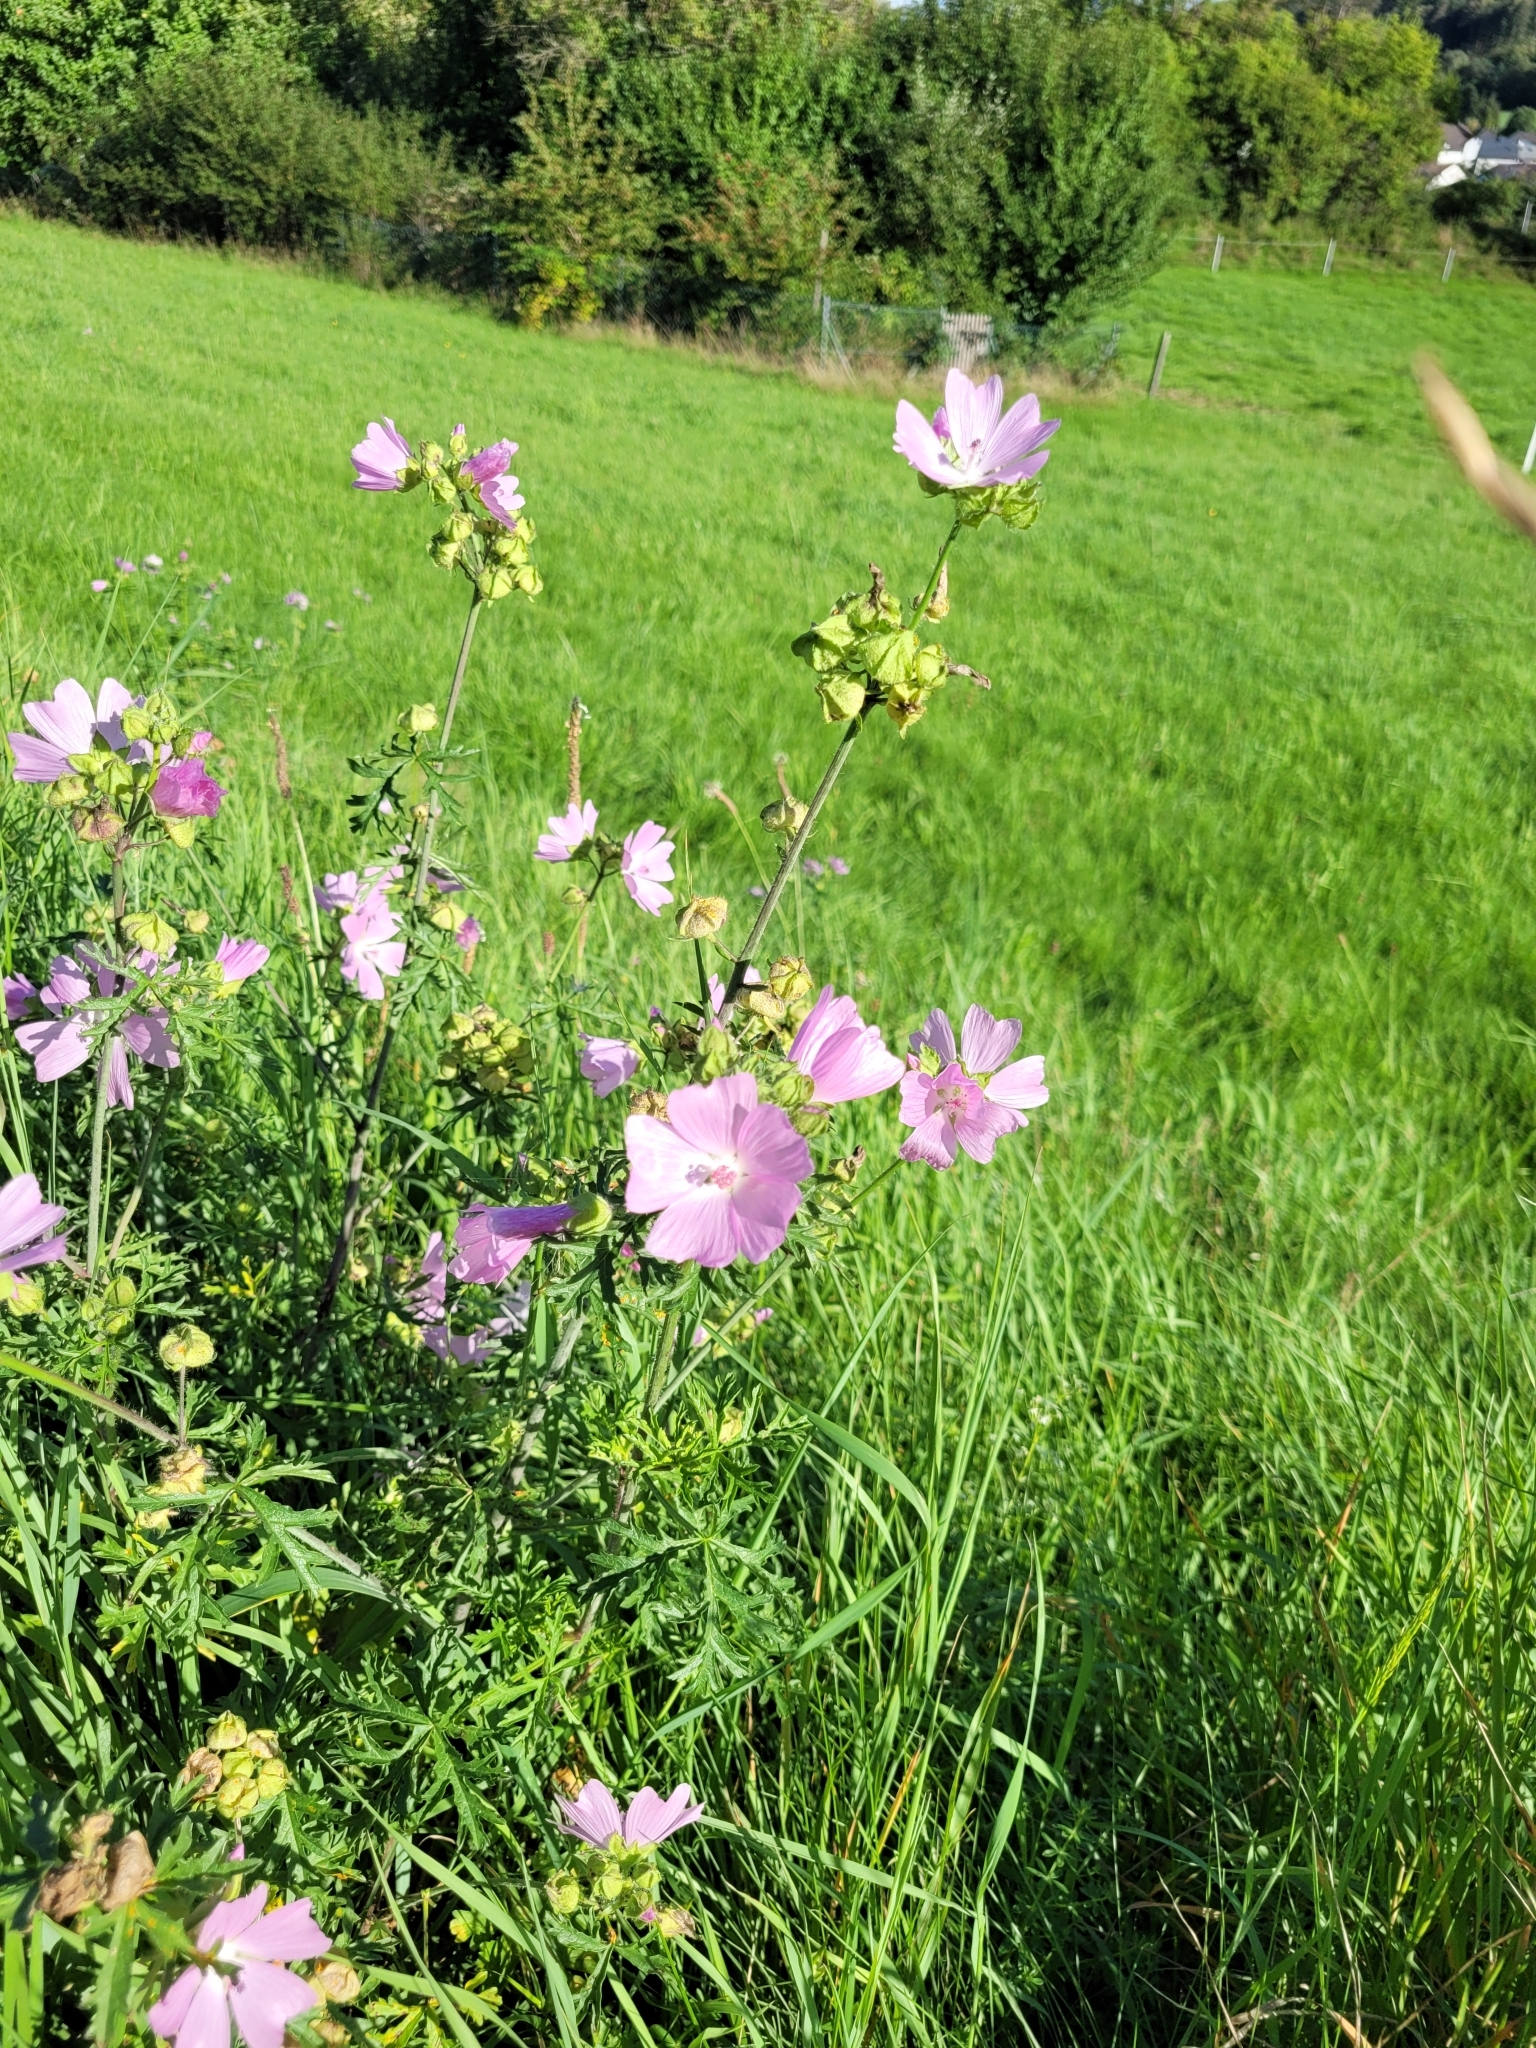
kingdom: Plantae
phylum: Tracheophyta
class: Magnoliopsida
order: Malvales
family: Malvaceae
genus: Malva
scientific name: Malva moschata
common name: Musk mallow
